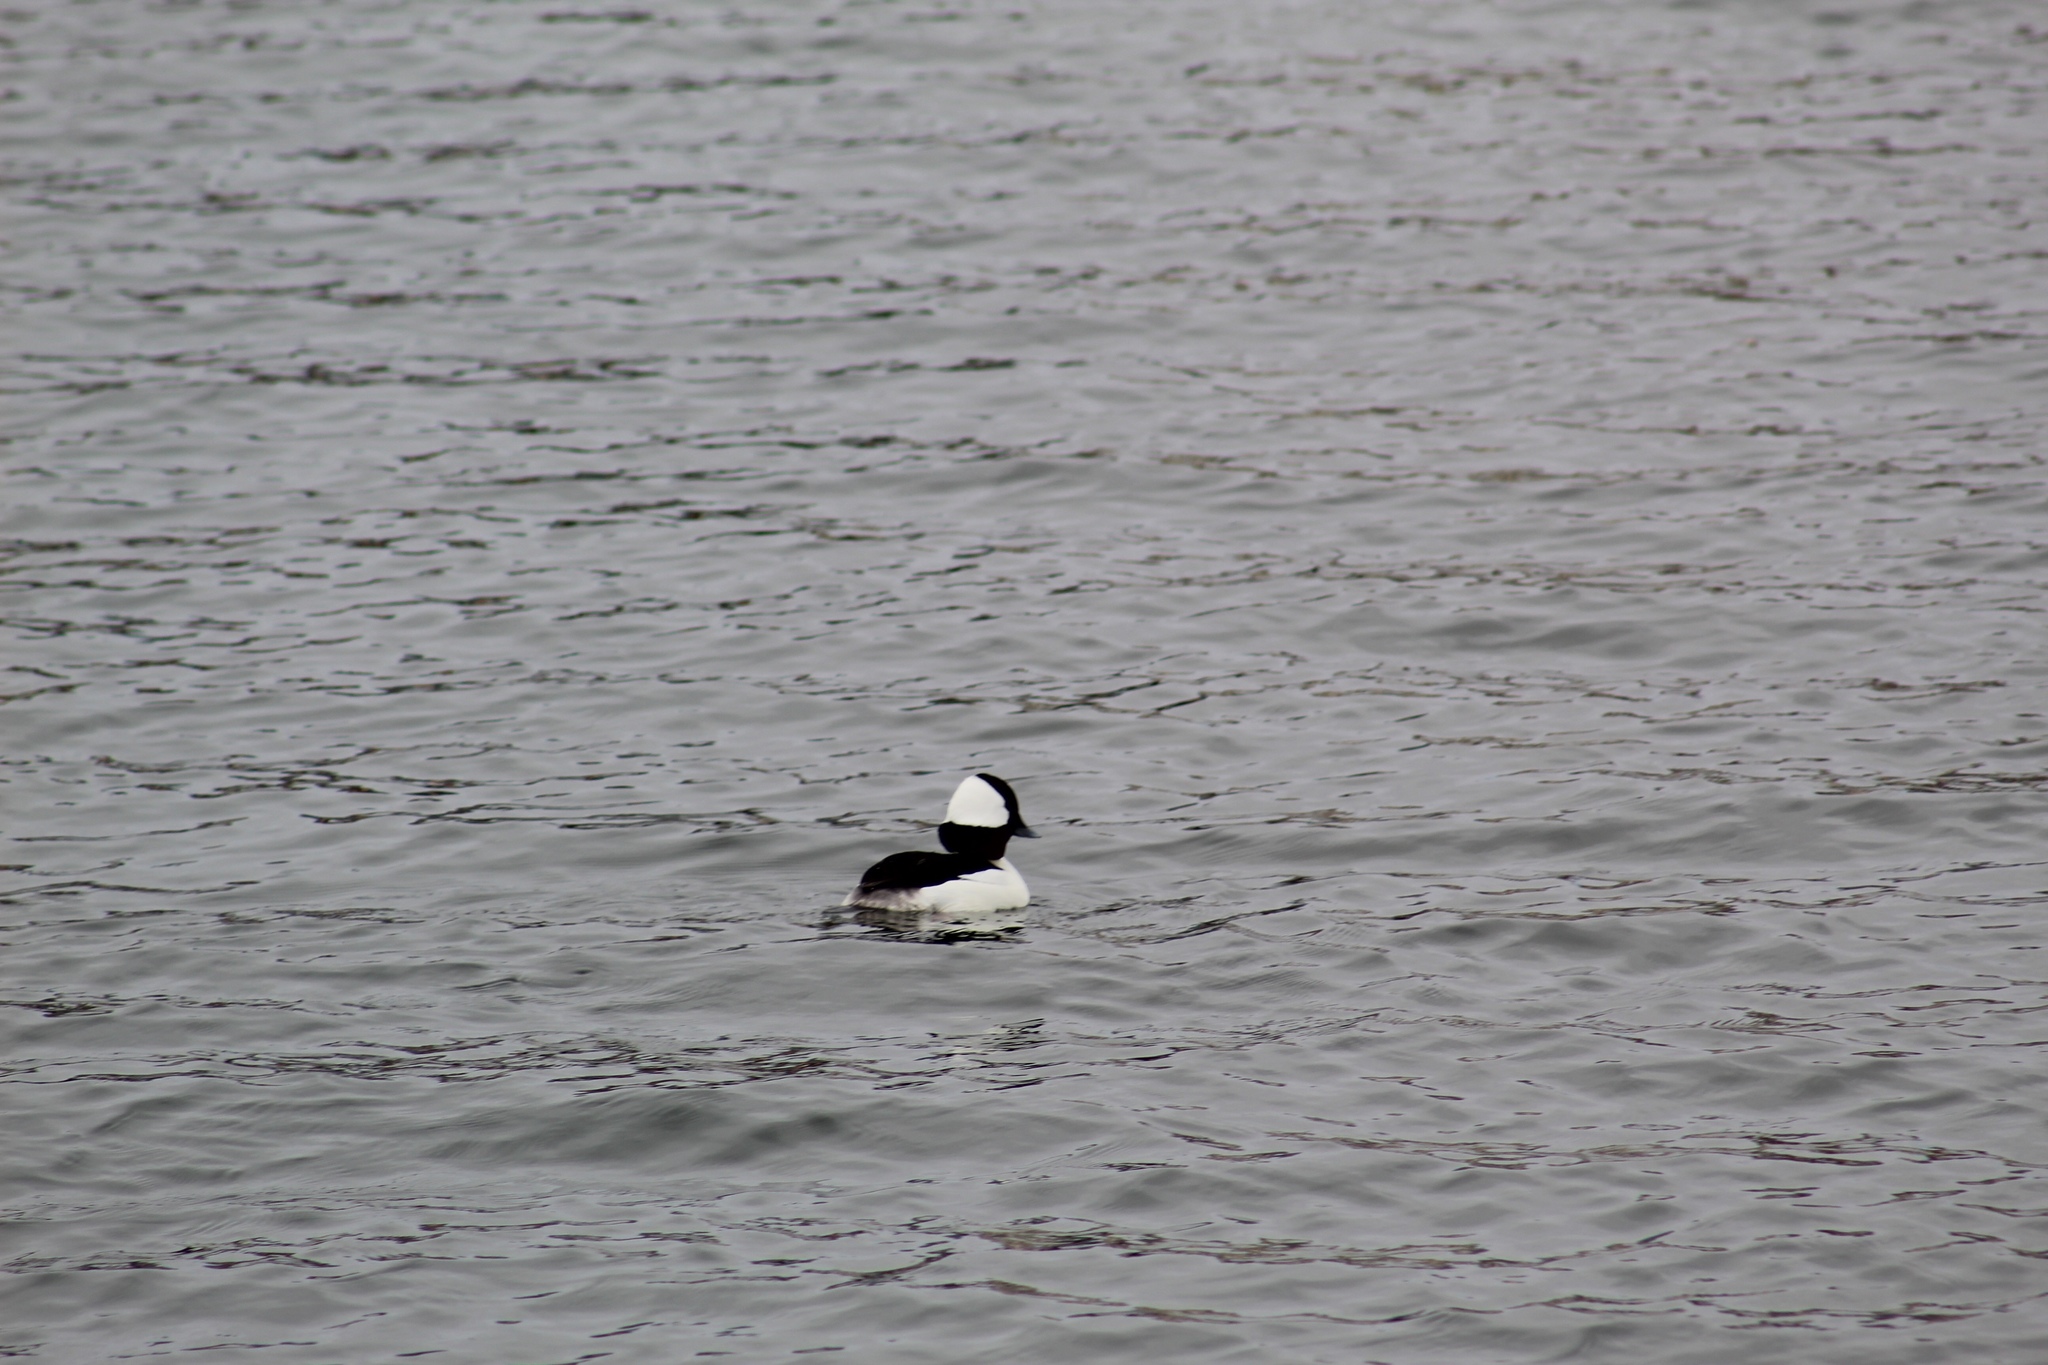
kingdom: Animalia
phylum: Chordata
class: Aves
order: Anseriformes
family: Anatidae
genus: Bucephala
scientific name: Bucephala albeola
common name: Bufflehead
